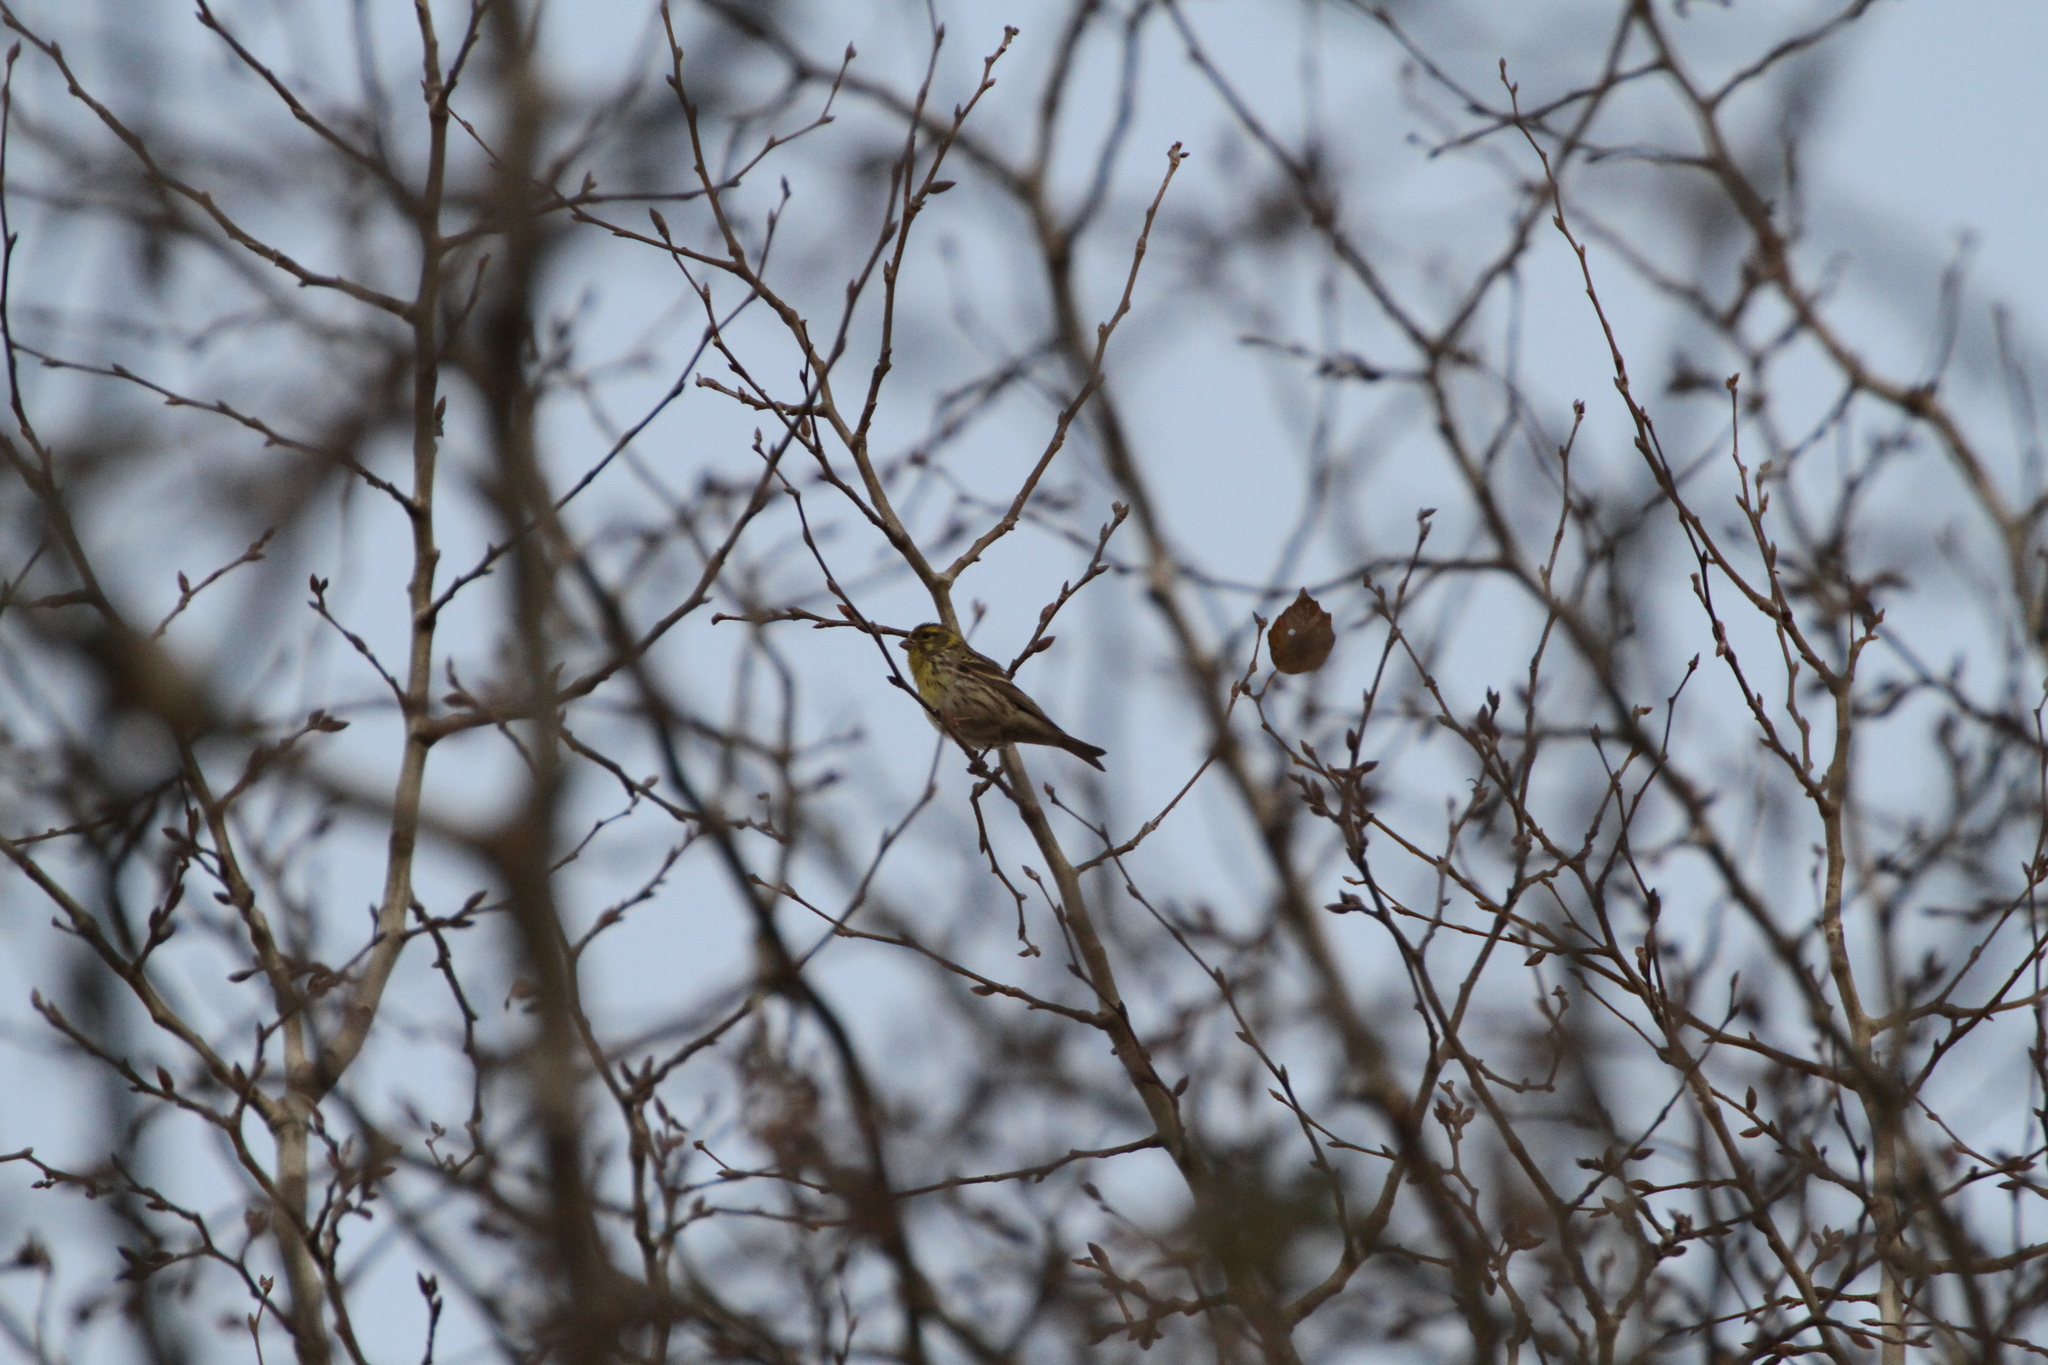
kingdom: Animalia
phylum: Chordata
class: Aves
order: Passeriformes
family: Fringillidae
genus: Serinus
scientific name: Serinus serinus
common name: European serin
